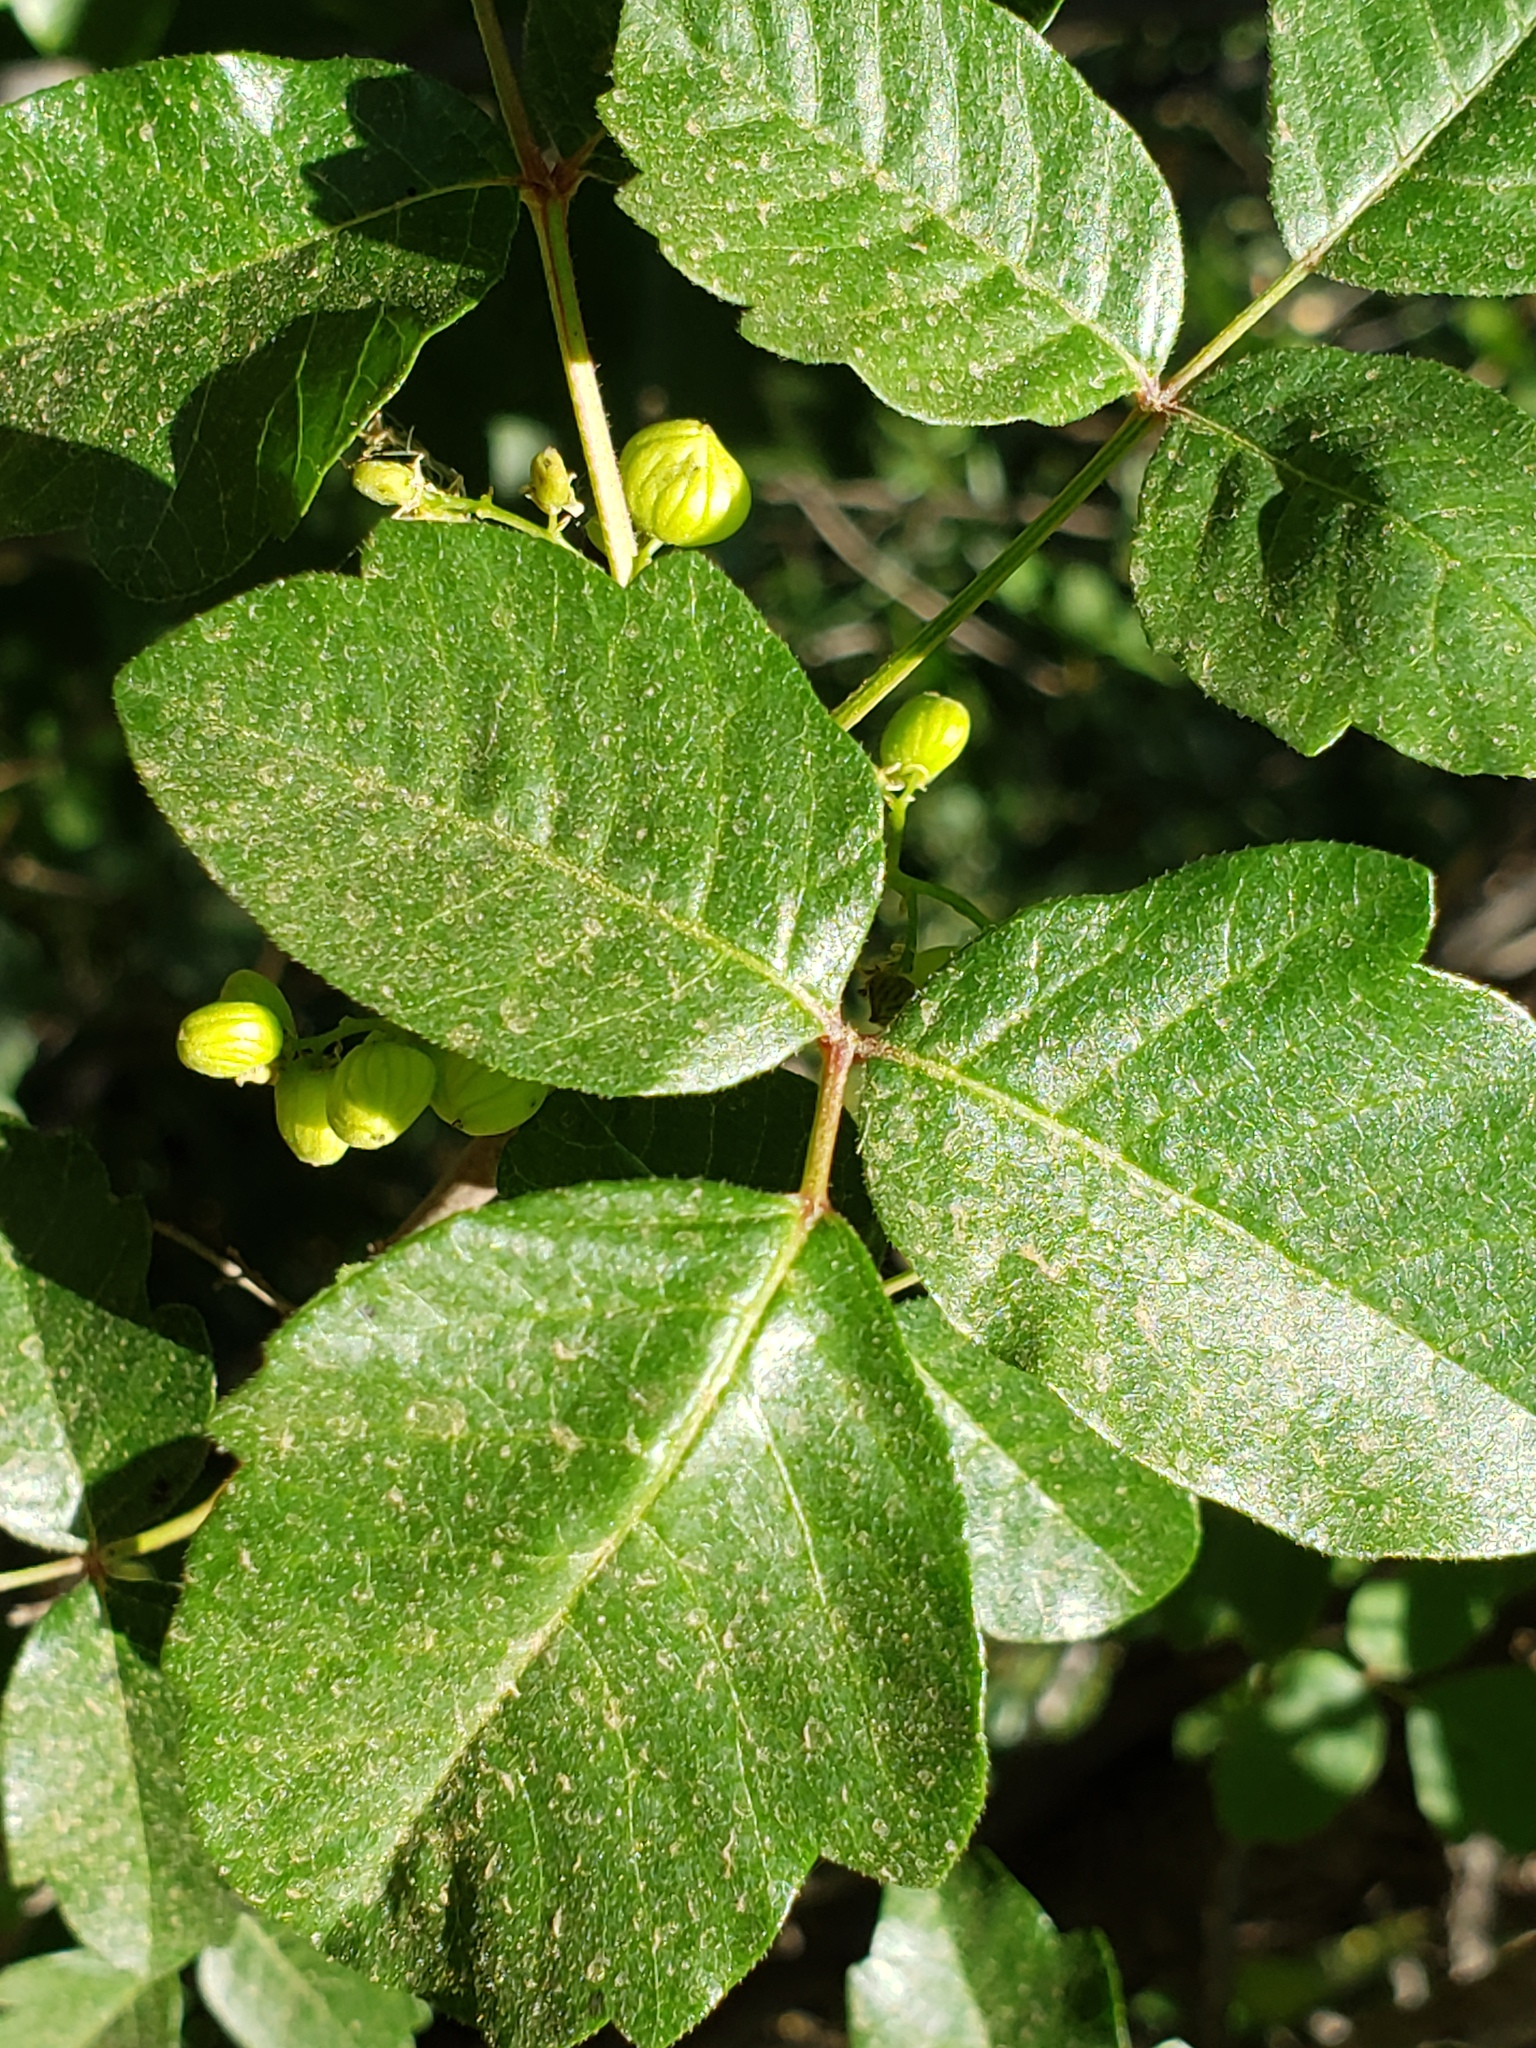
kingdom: Plantae
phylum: Tracheophyta
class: Magnoliopsida
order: Sapindales
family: Anacardiaceae
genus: Toxicodendron
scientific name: Toxicodendron diversilobum
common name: Pacific poison-oak
